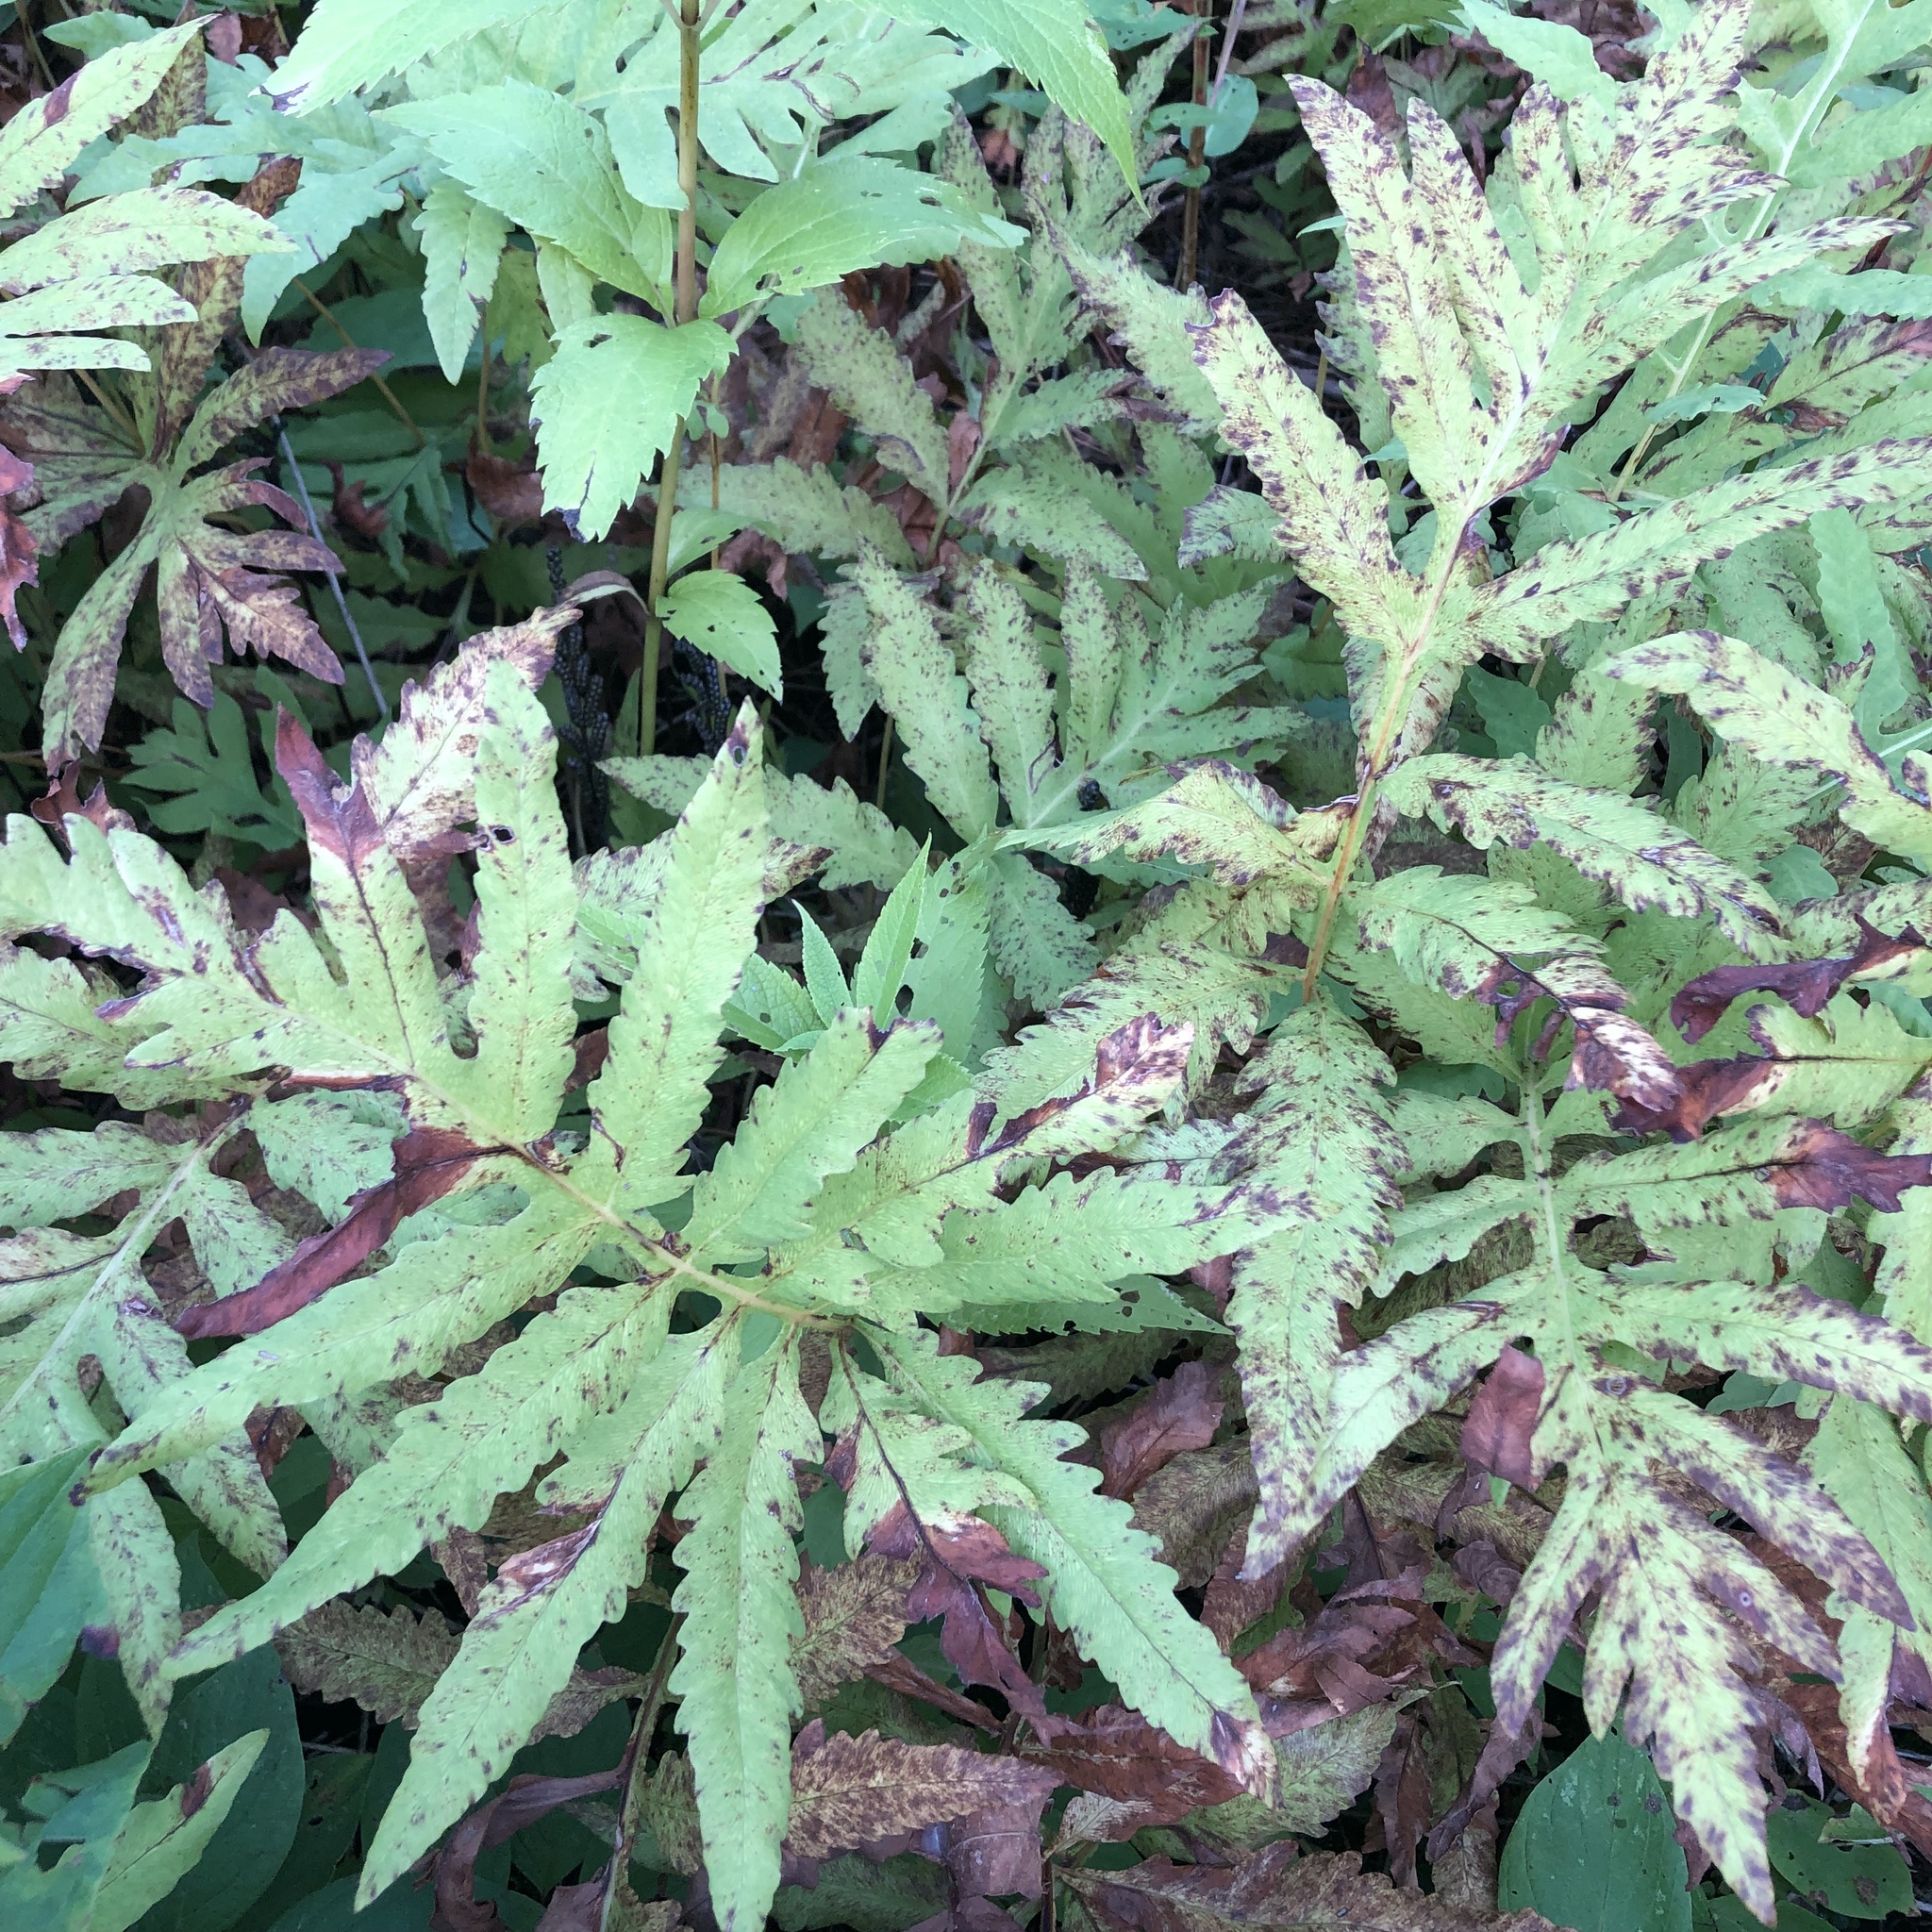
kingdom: Plantae
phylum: Tracheophyta
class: Polypodiopsida
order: Polypodiales
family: Onocleaceae
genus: Onoclea
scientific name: Onoclea sensibilis
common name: Sensitive fern
